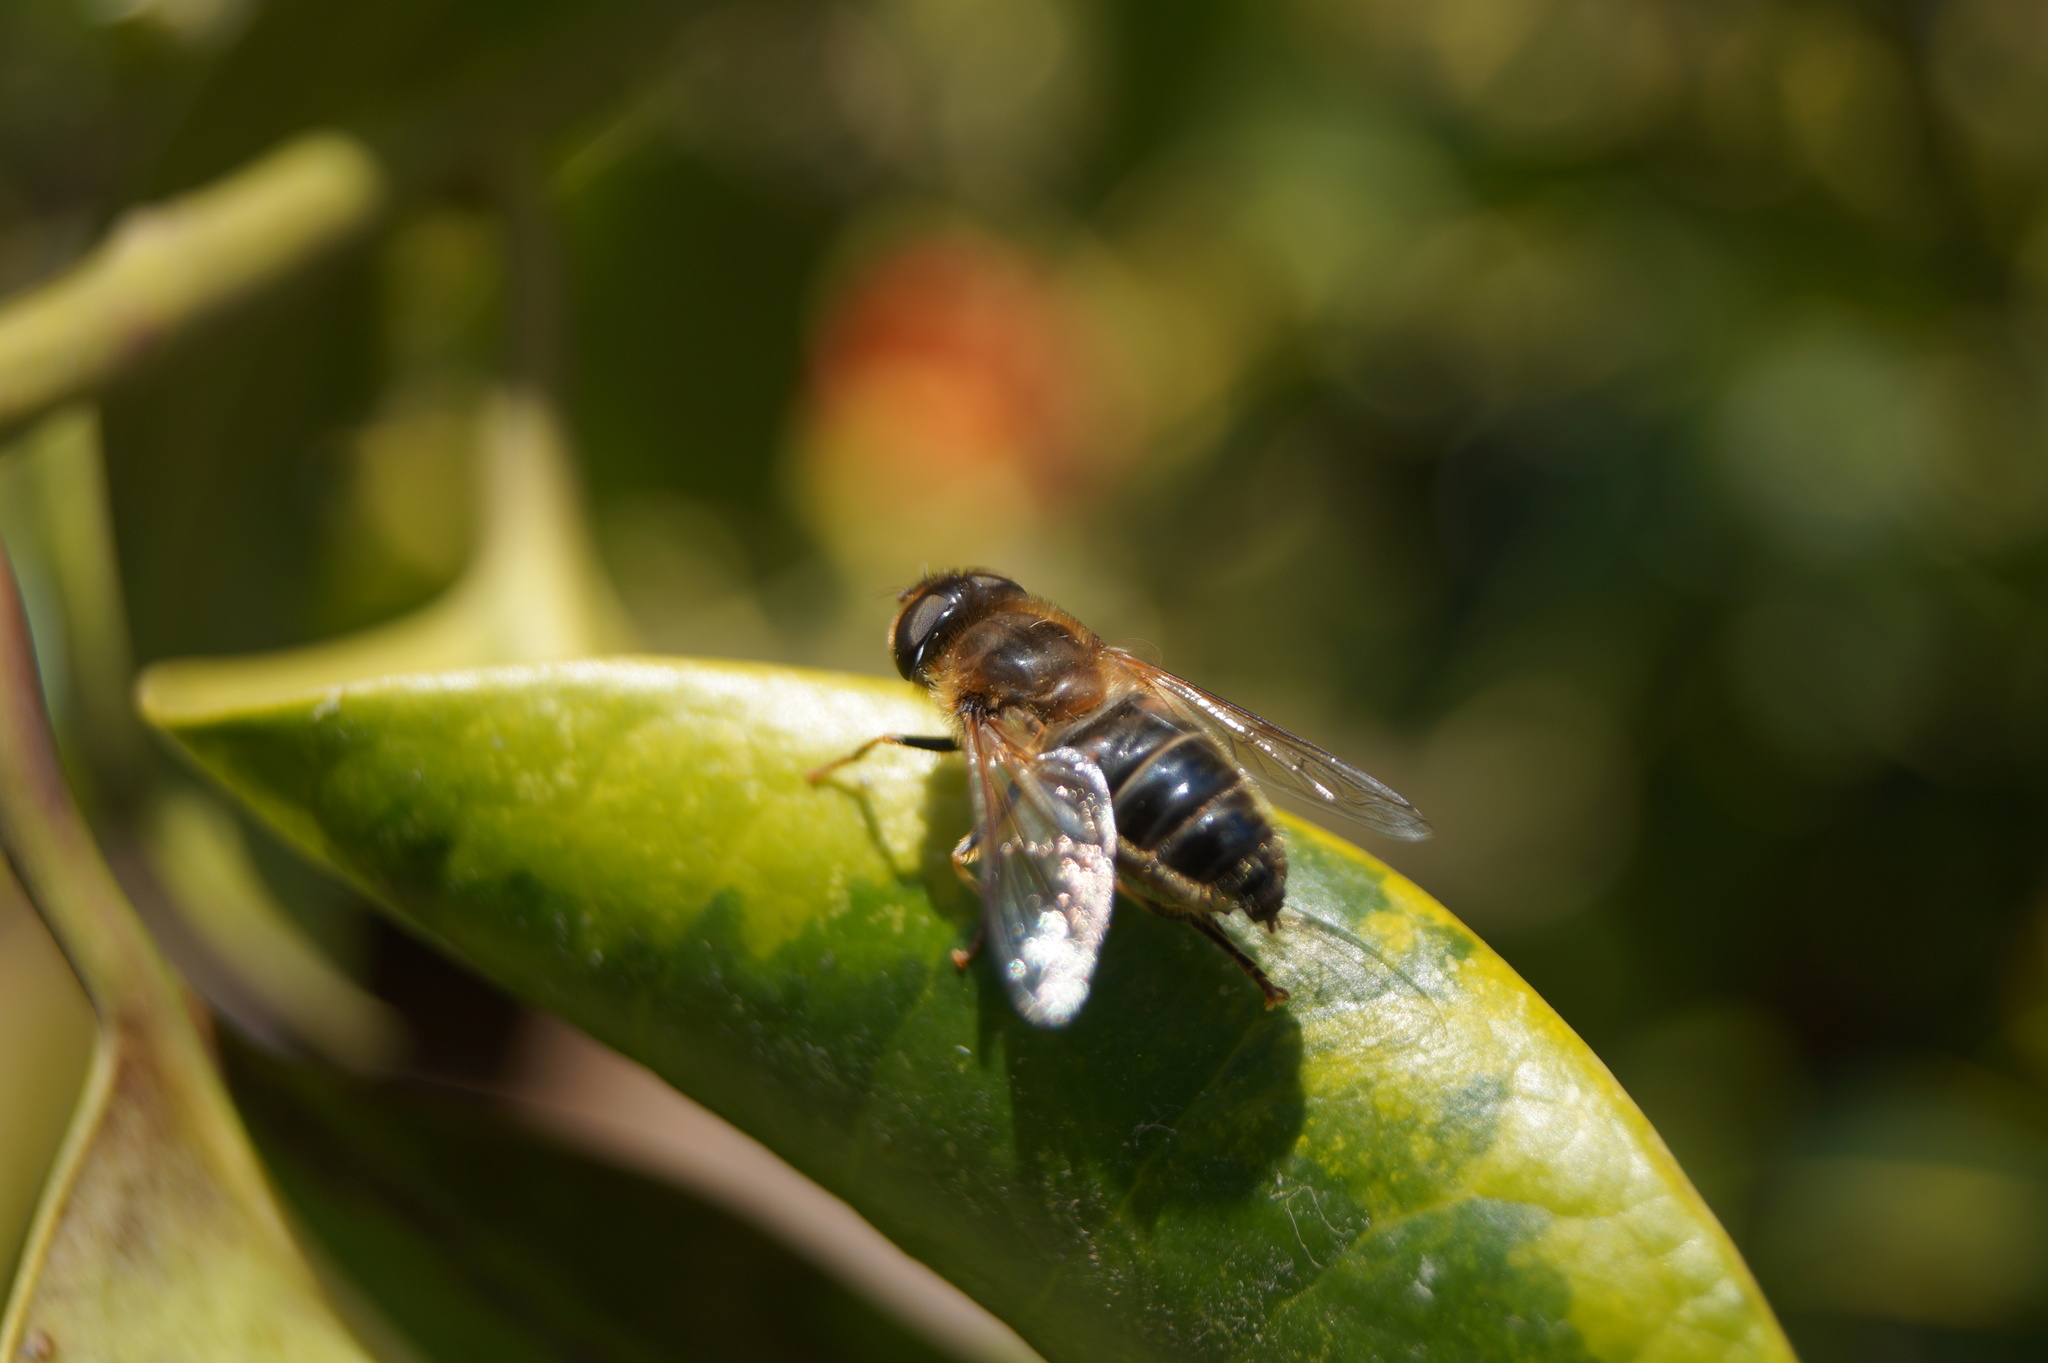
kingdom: Animalia
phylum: Arthropoda
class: Insecta
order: Diptera
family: Syrphidae
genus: Eristalis
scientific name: Eristalis pertinax
